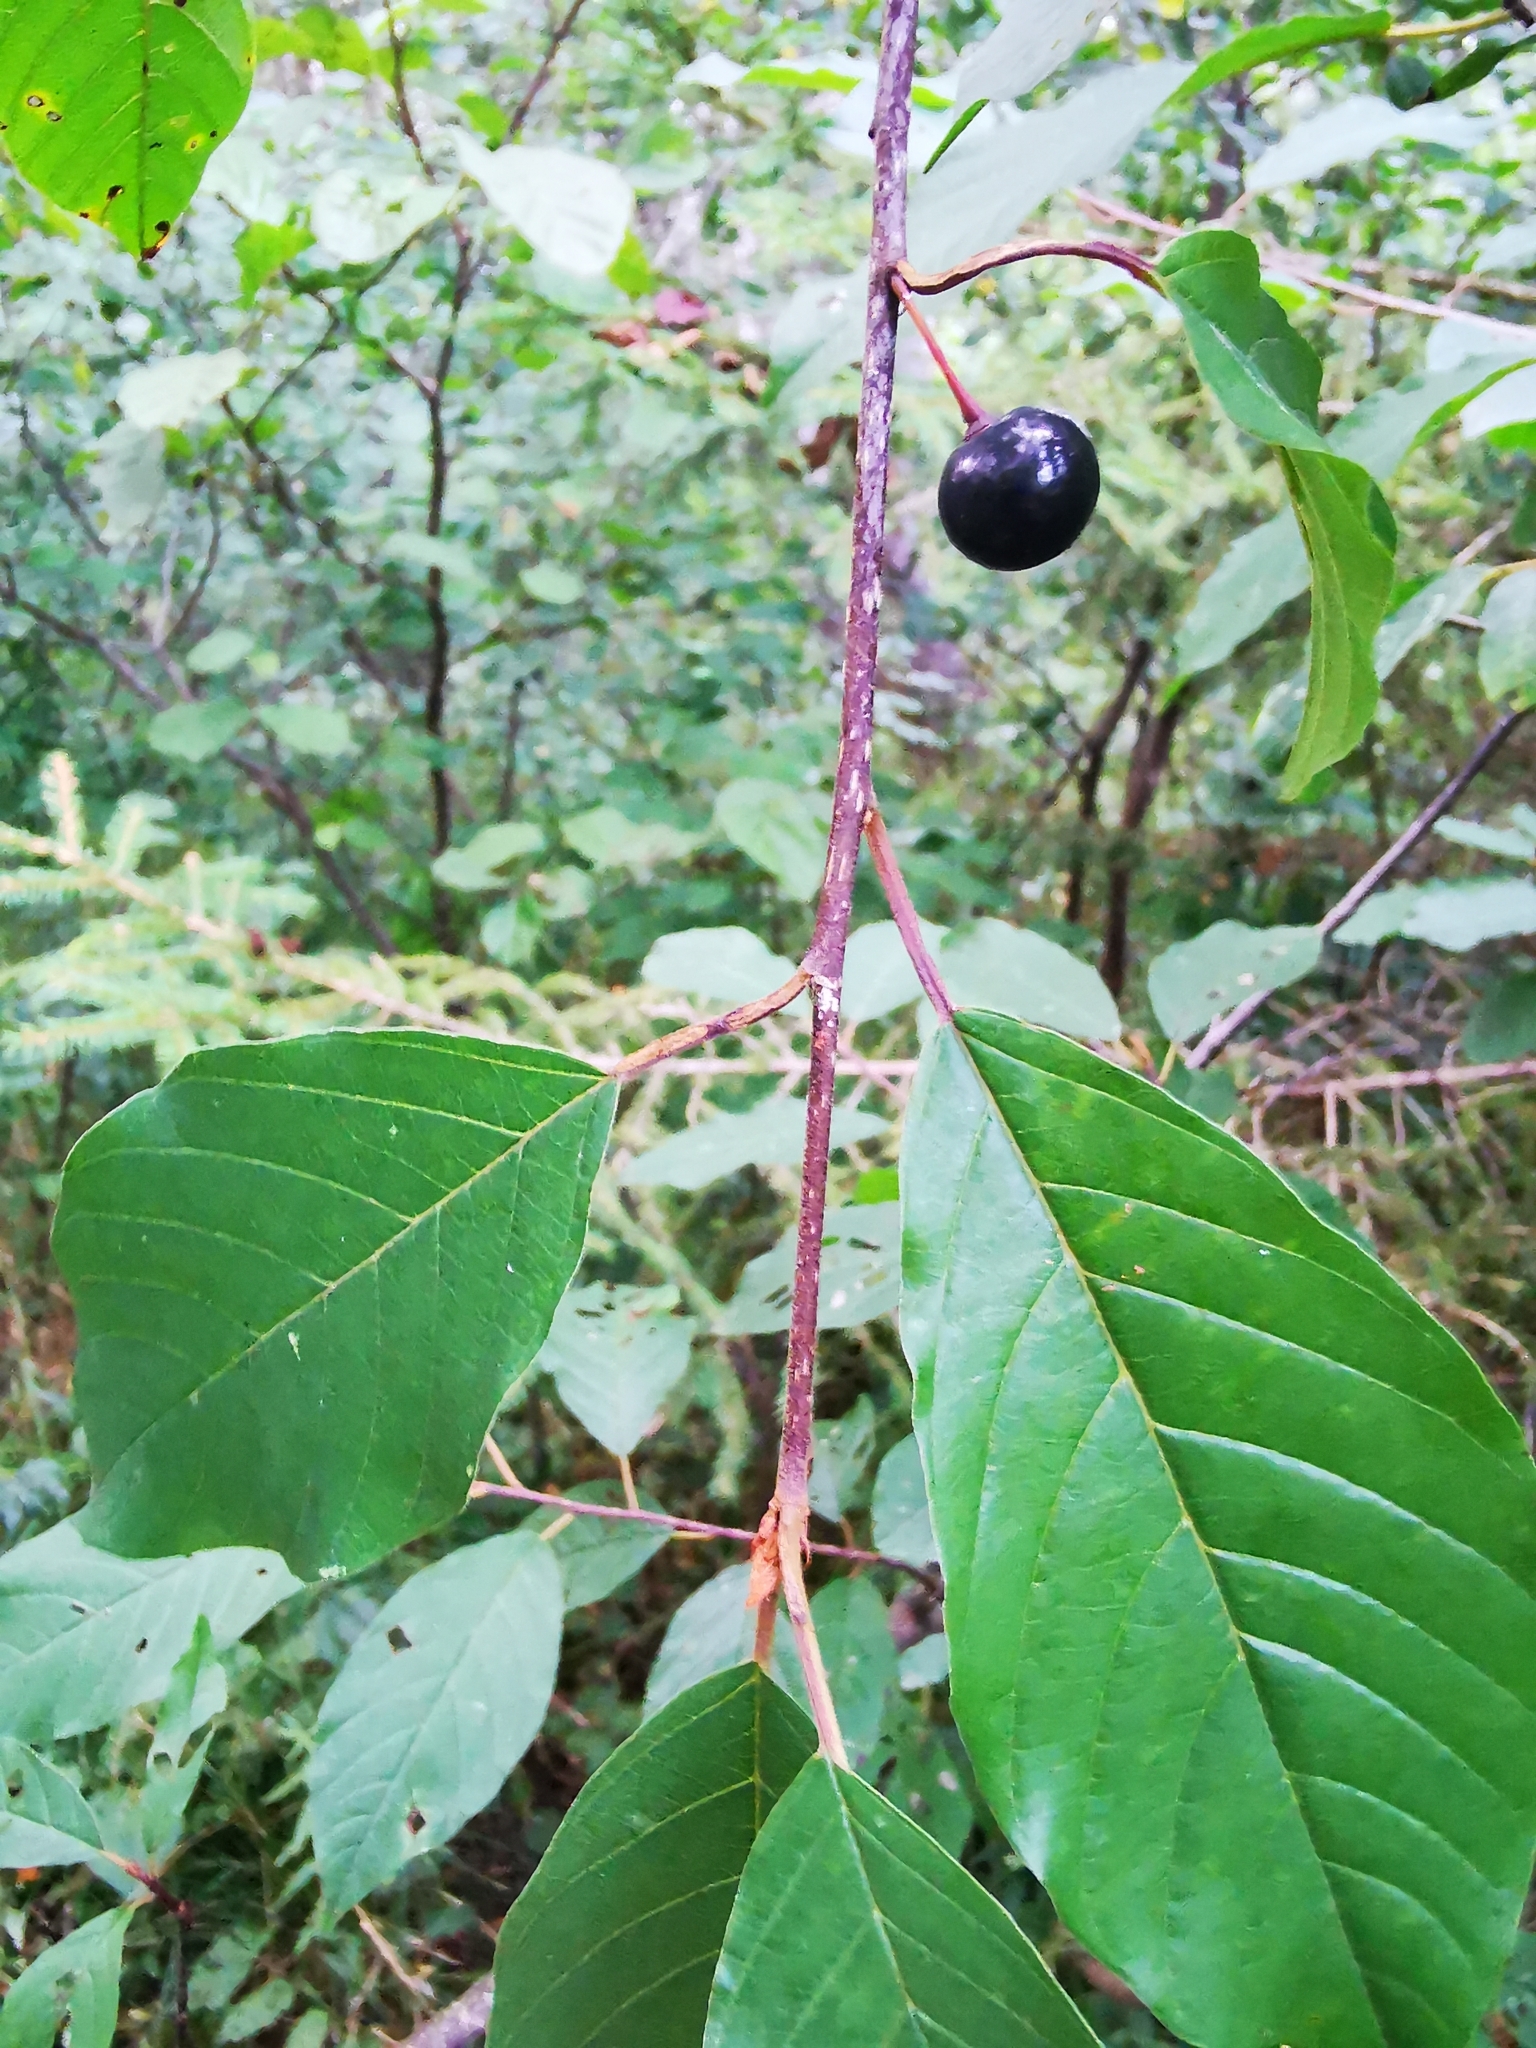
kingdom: Plantae
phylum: Tracheophyta
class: Magnoliopsida
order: Rosales
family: Rhamnaceae
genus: Frangula
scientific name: Frangula alnus
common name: Alder buckthorn
